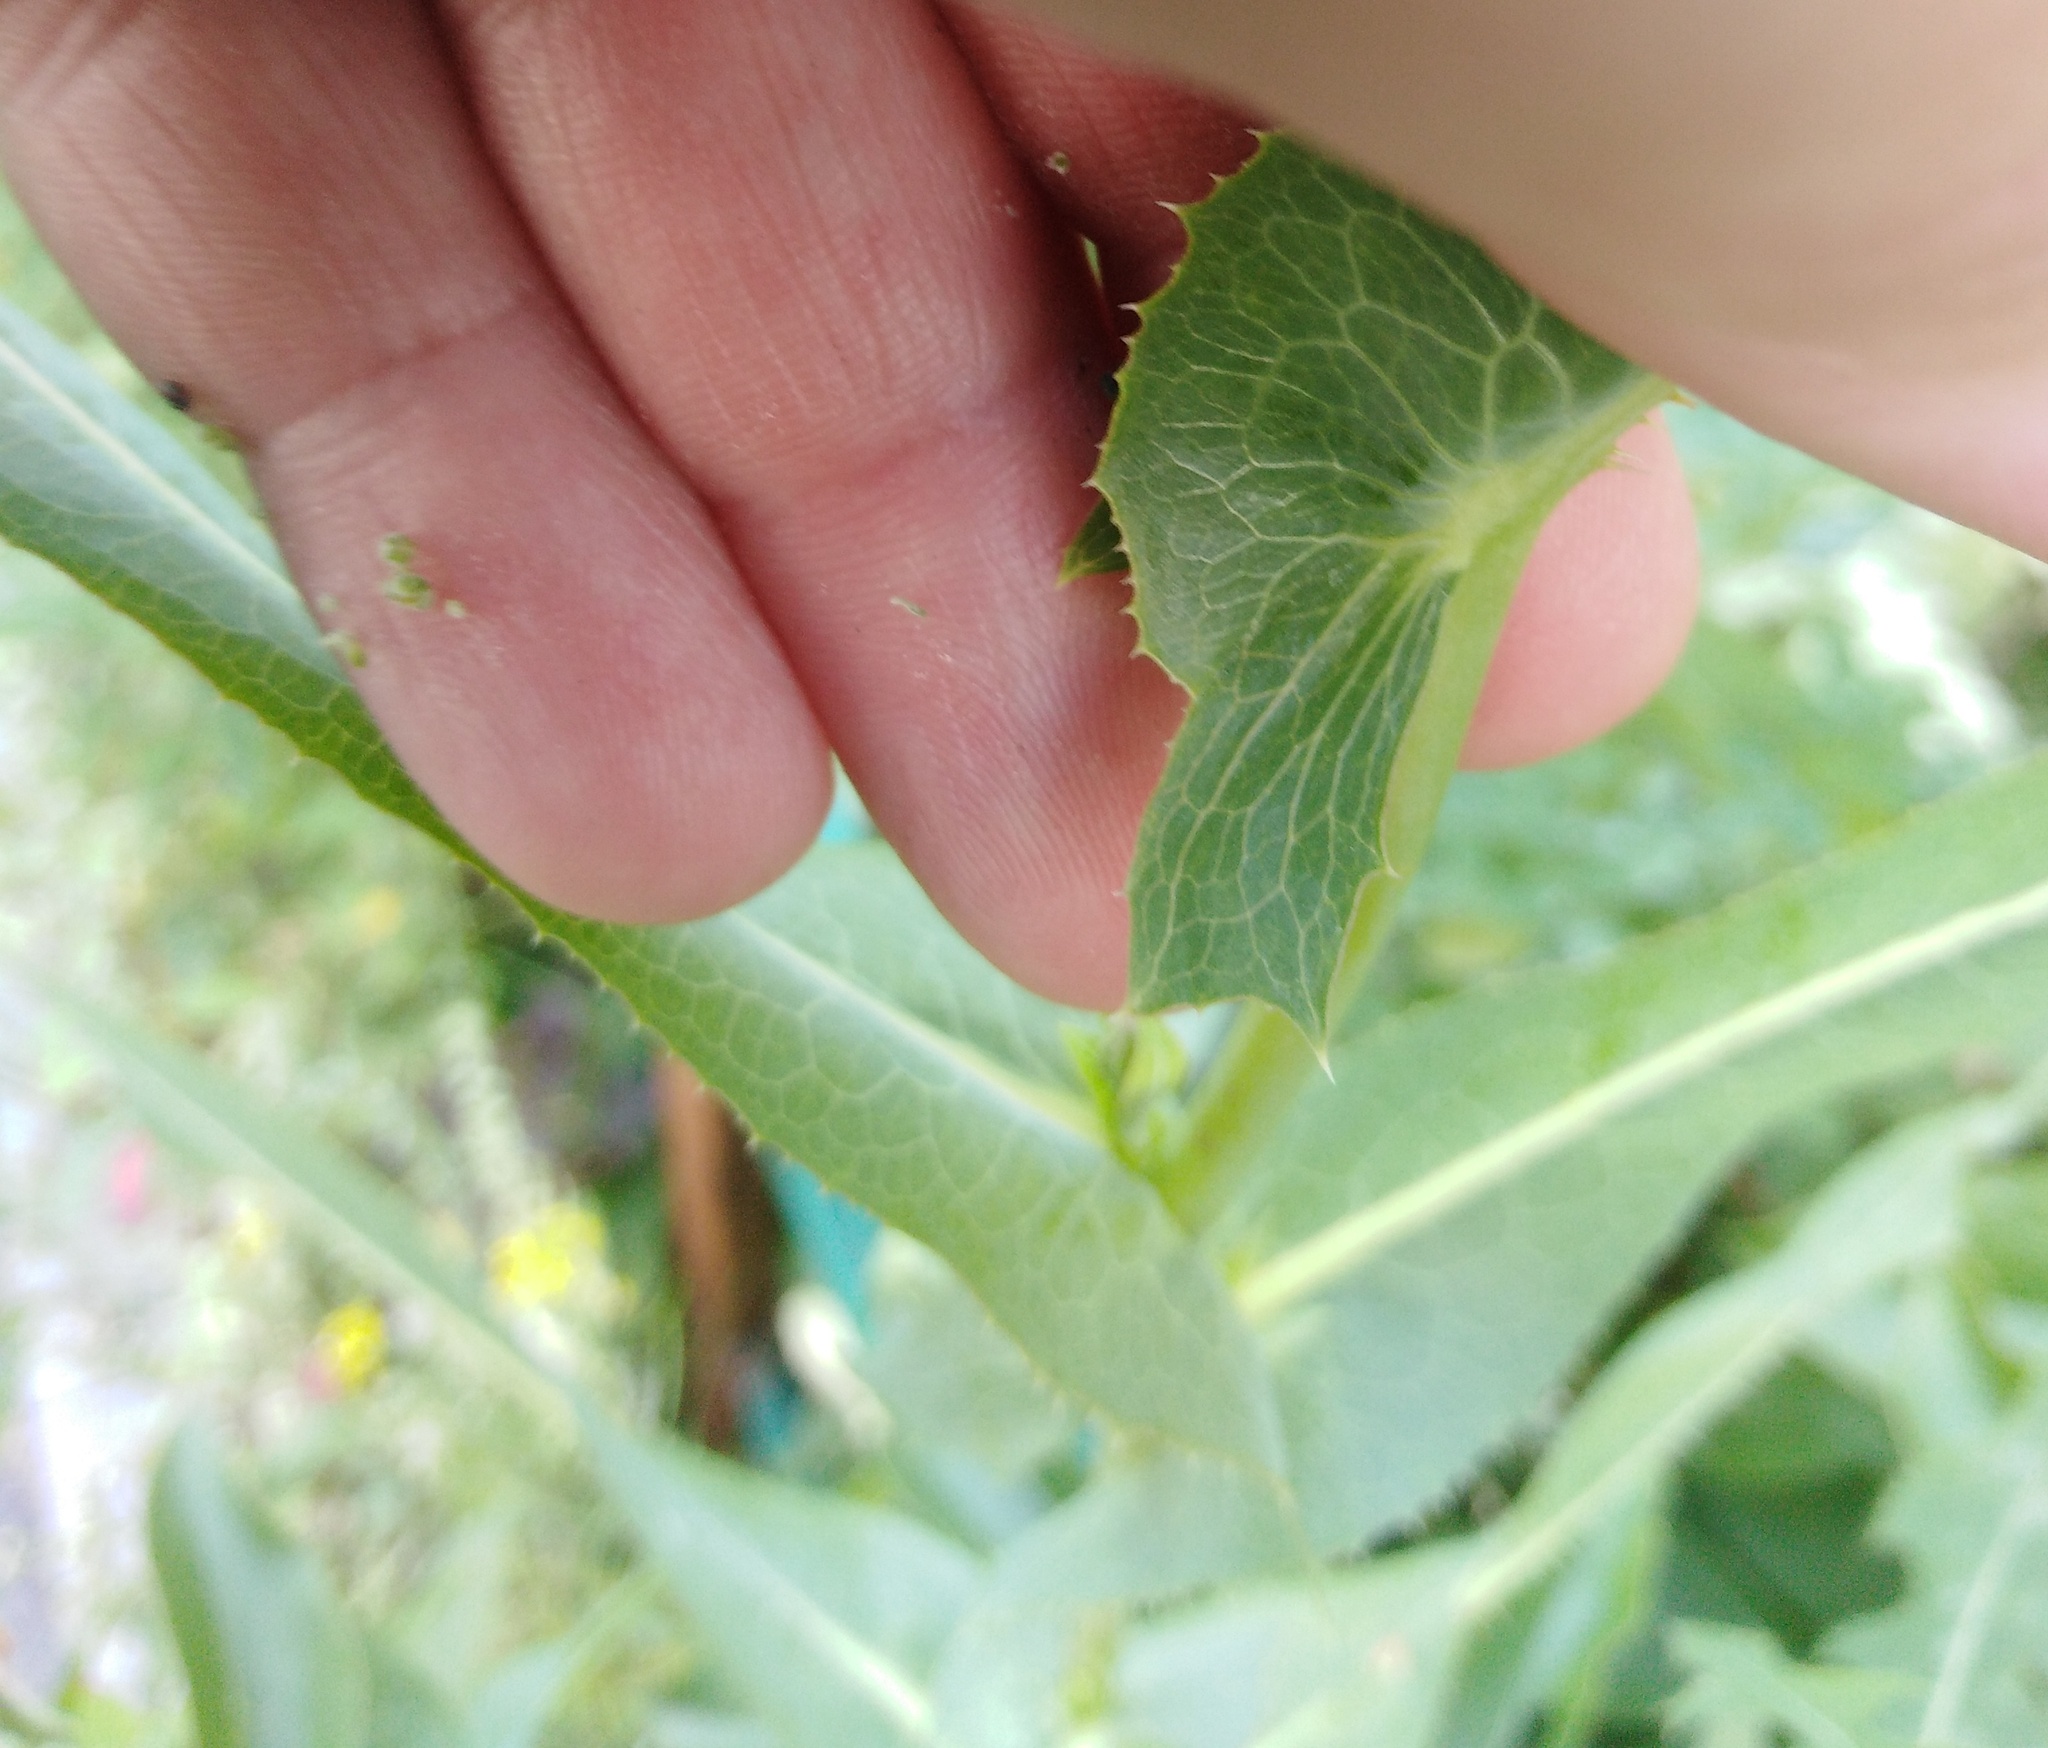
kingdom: Plantae
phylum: Tracheophyta
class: Magnoliopsida
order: Asterales
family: Asteraceae
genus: Lactuca
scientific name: Lactuca serriola
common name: Prickly lettuce
